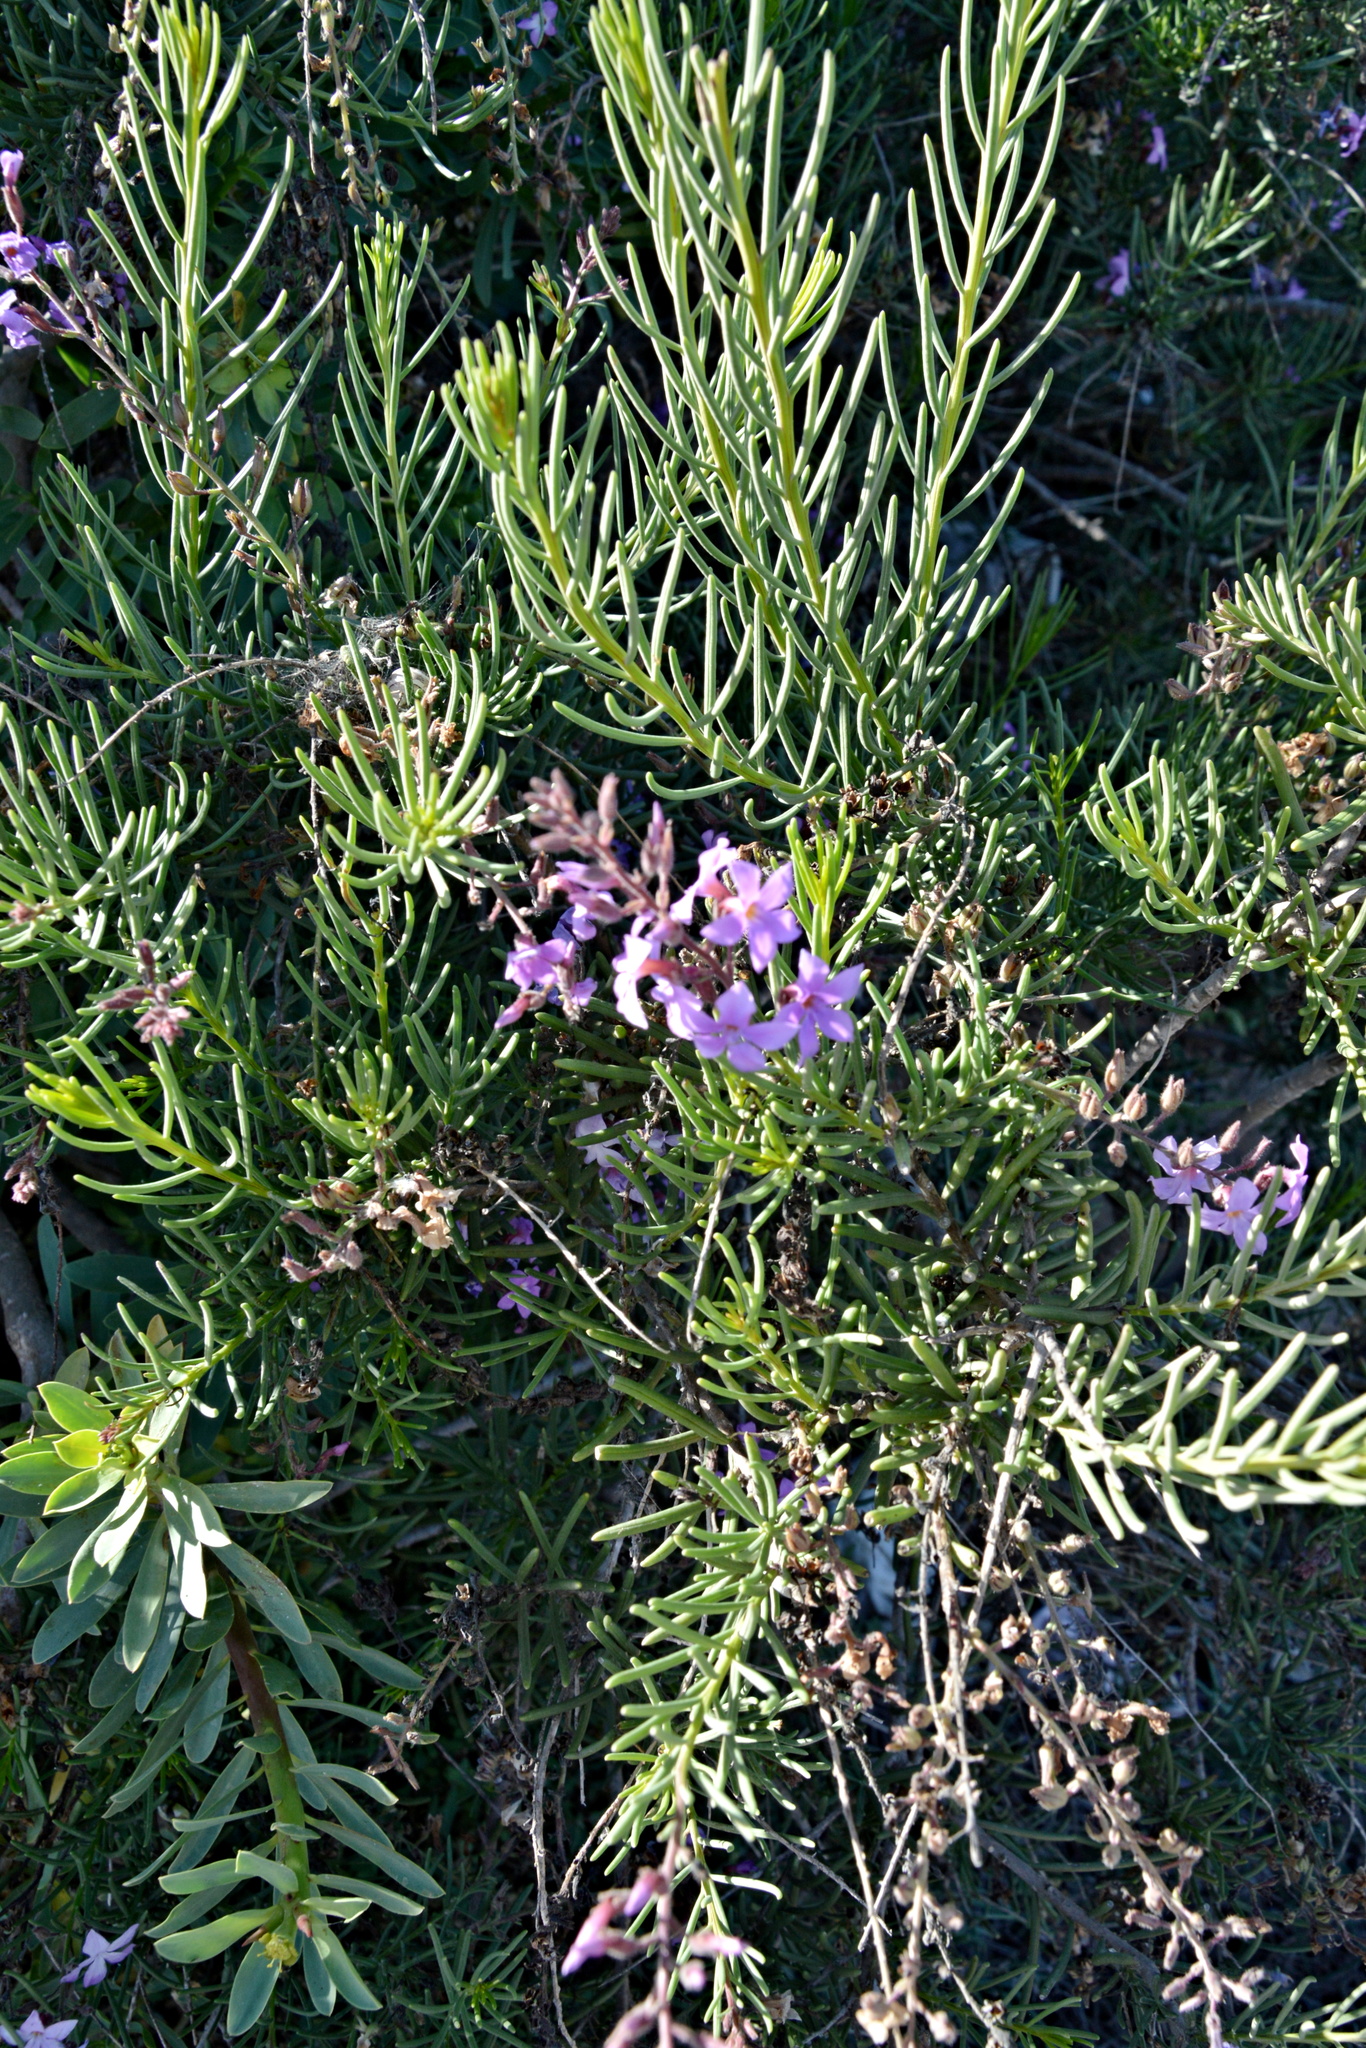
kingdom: Plantae
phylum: Tracheophyta
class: Magnoliopsida
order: Lamiales
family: Plantaginaceae
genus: Campylanthus
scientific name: Campylanthus salsoloides
